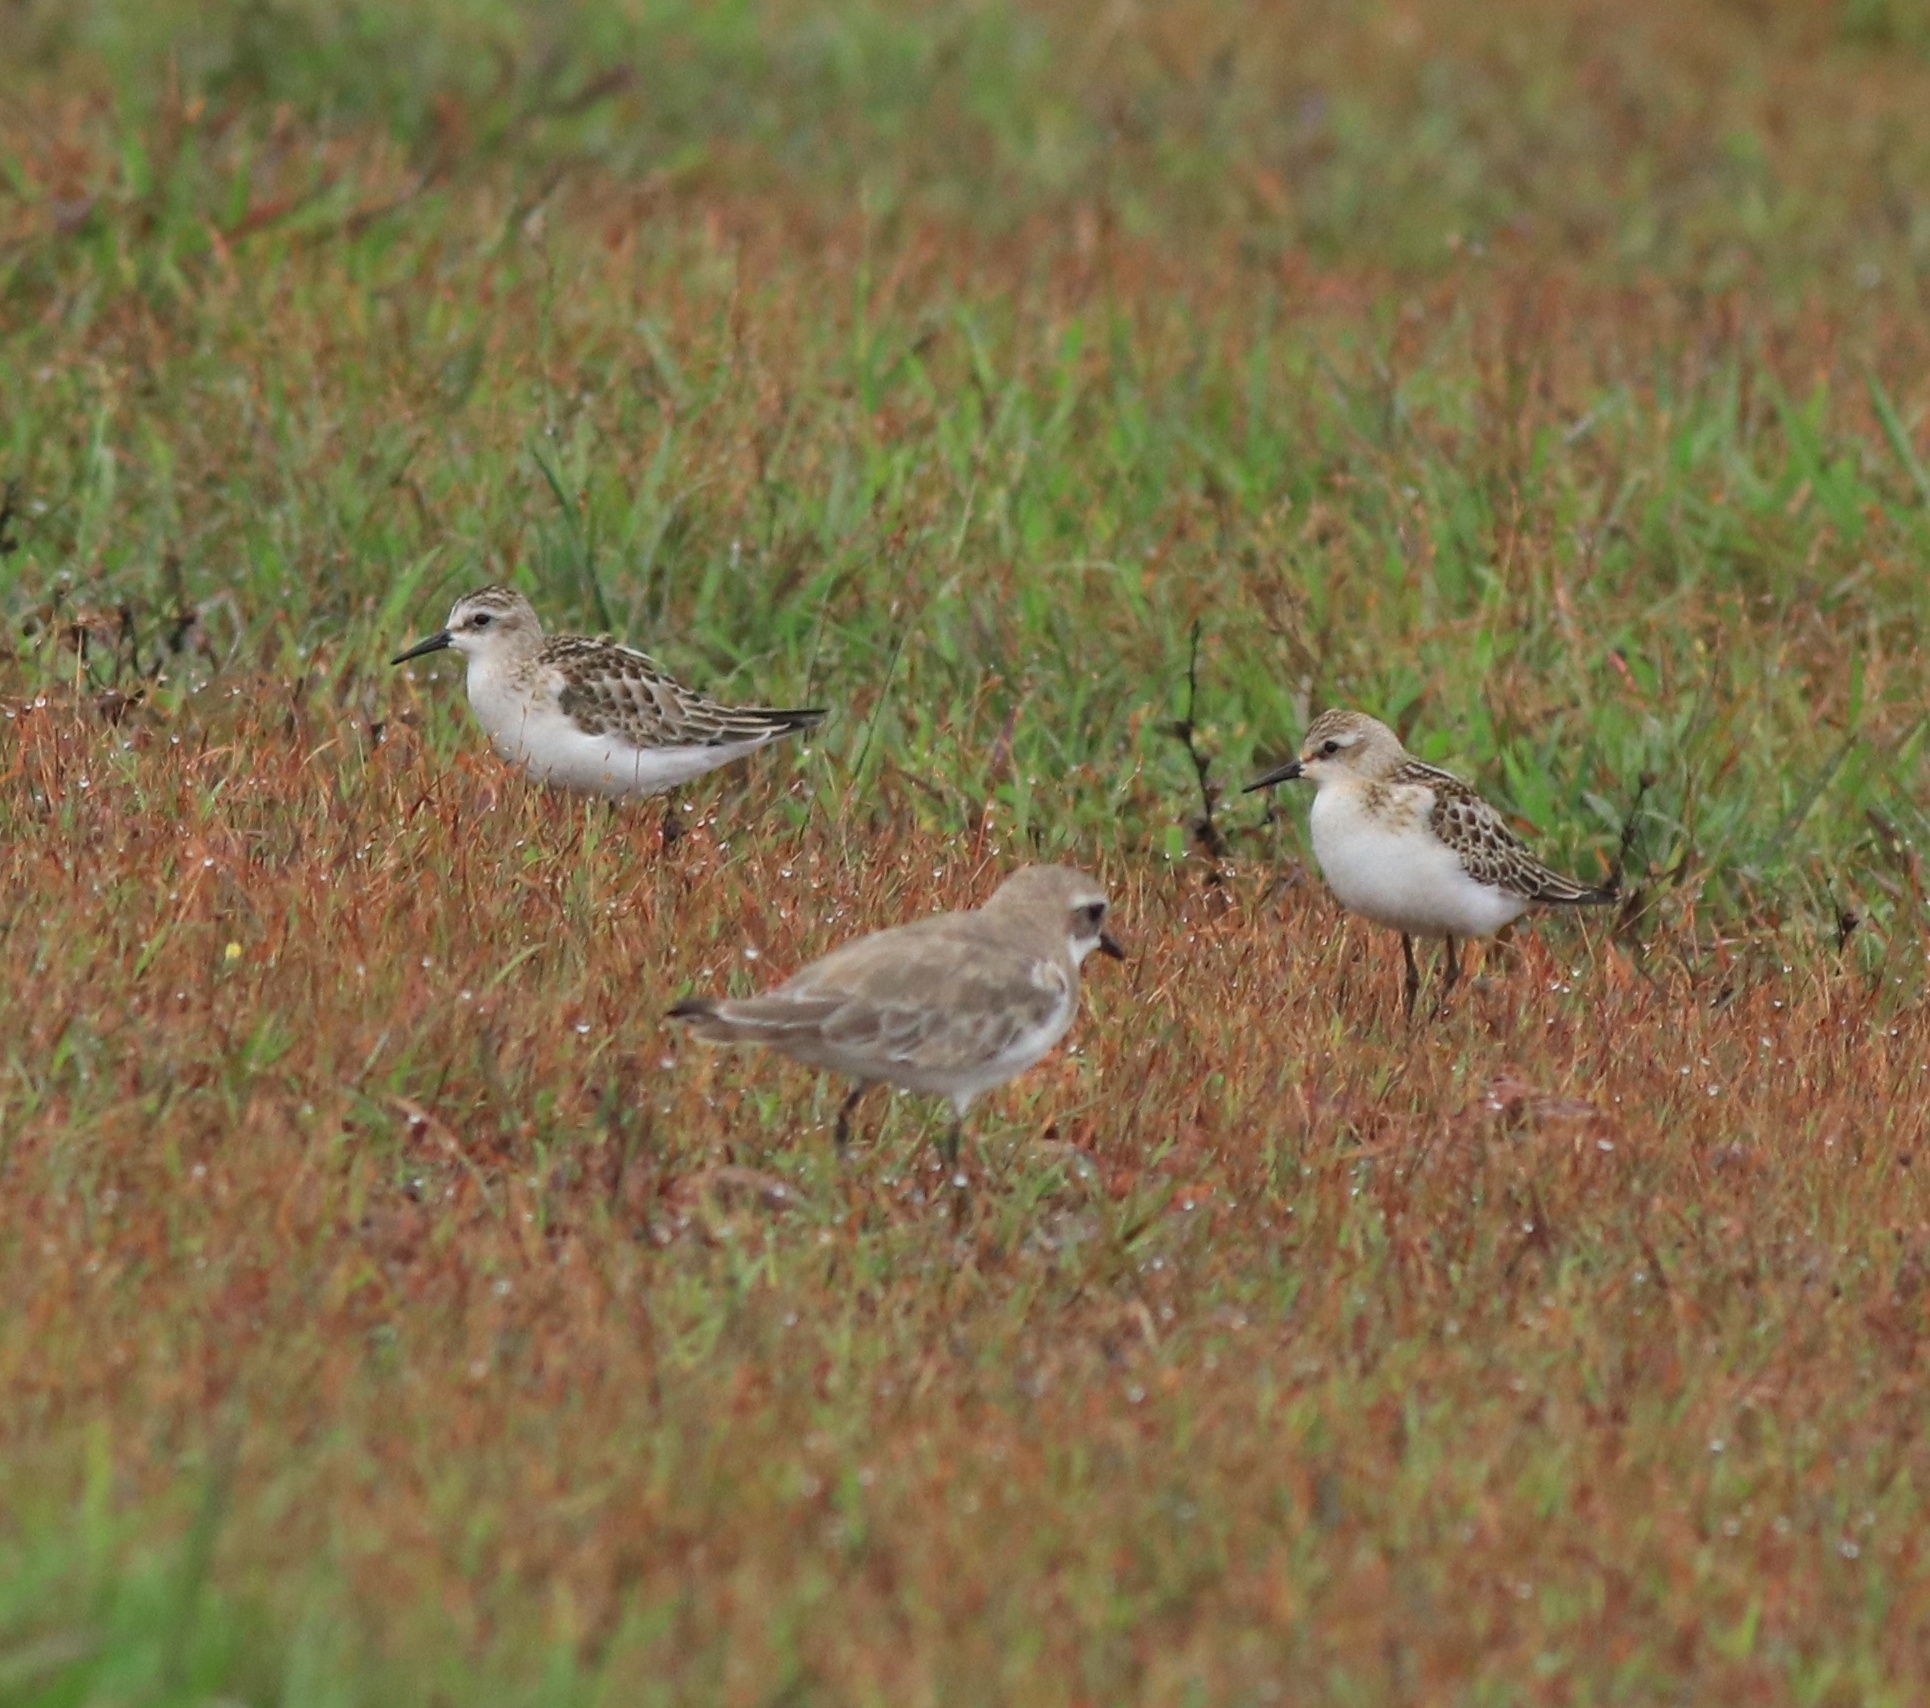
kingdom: Animalia
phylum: Chordata
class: Aves
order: Charadriiformes
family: Charadriidae
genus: Anarhynchus
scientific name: Anarhynchus
